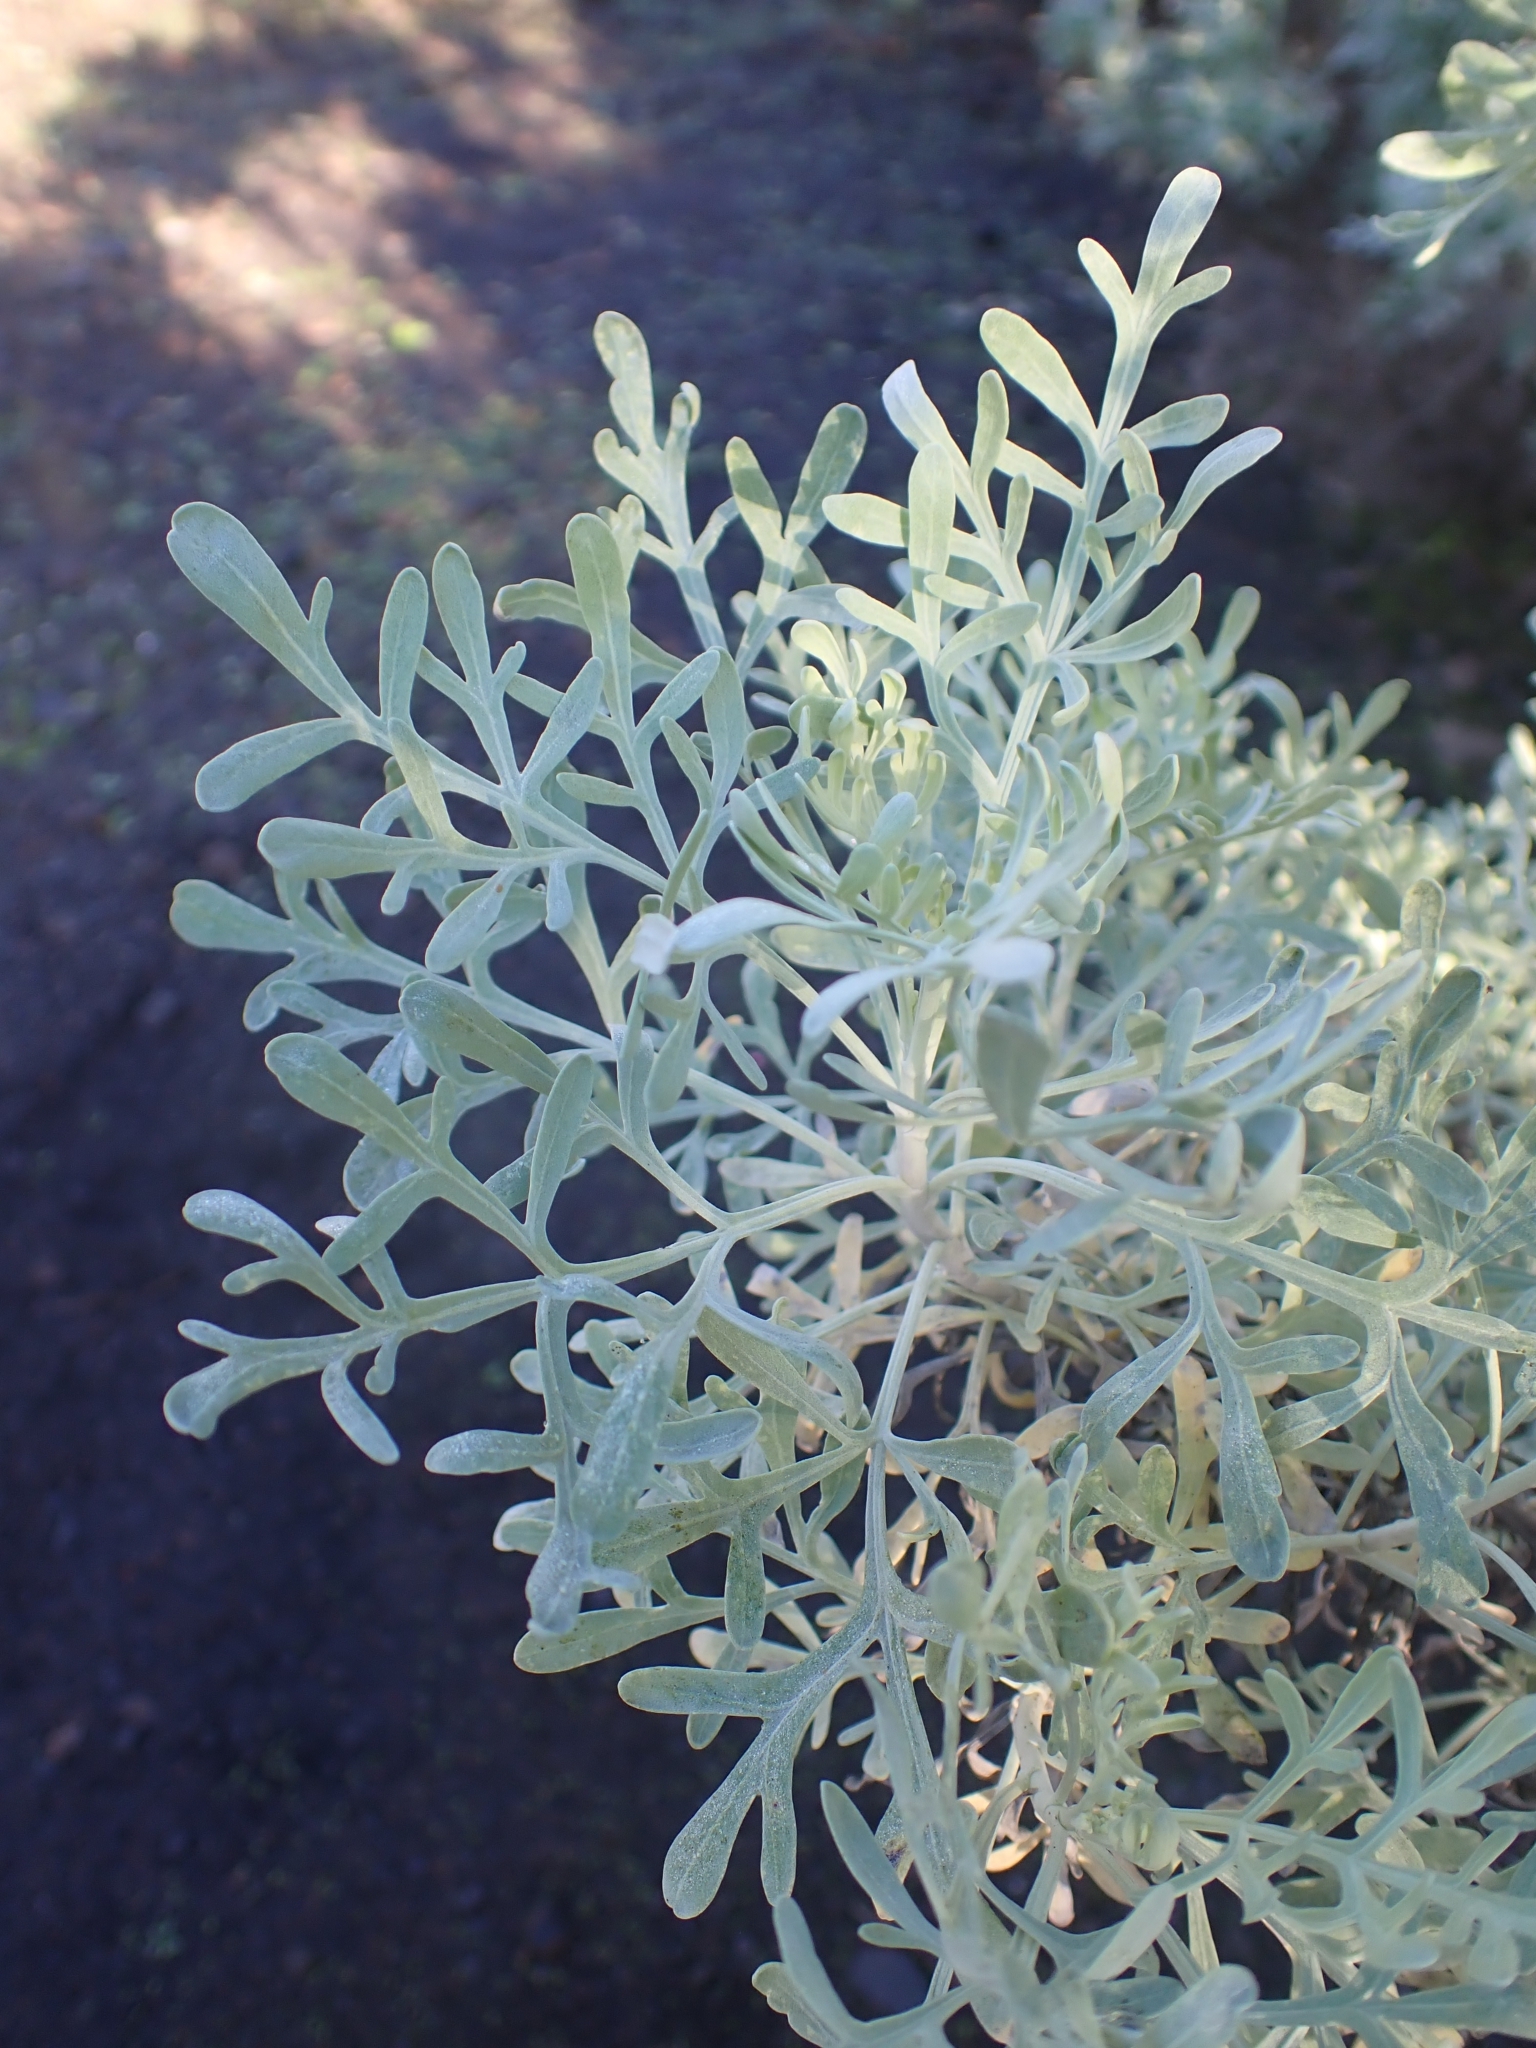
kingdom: Plantae
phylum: Tracheophyta
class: Magnoliopsida
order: Asterales
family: Asteraceae
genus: Artemisia
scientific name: Artemisia thuscula
